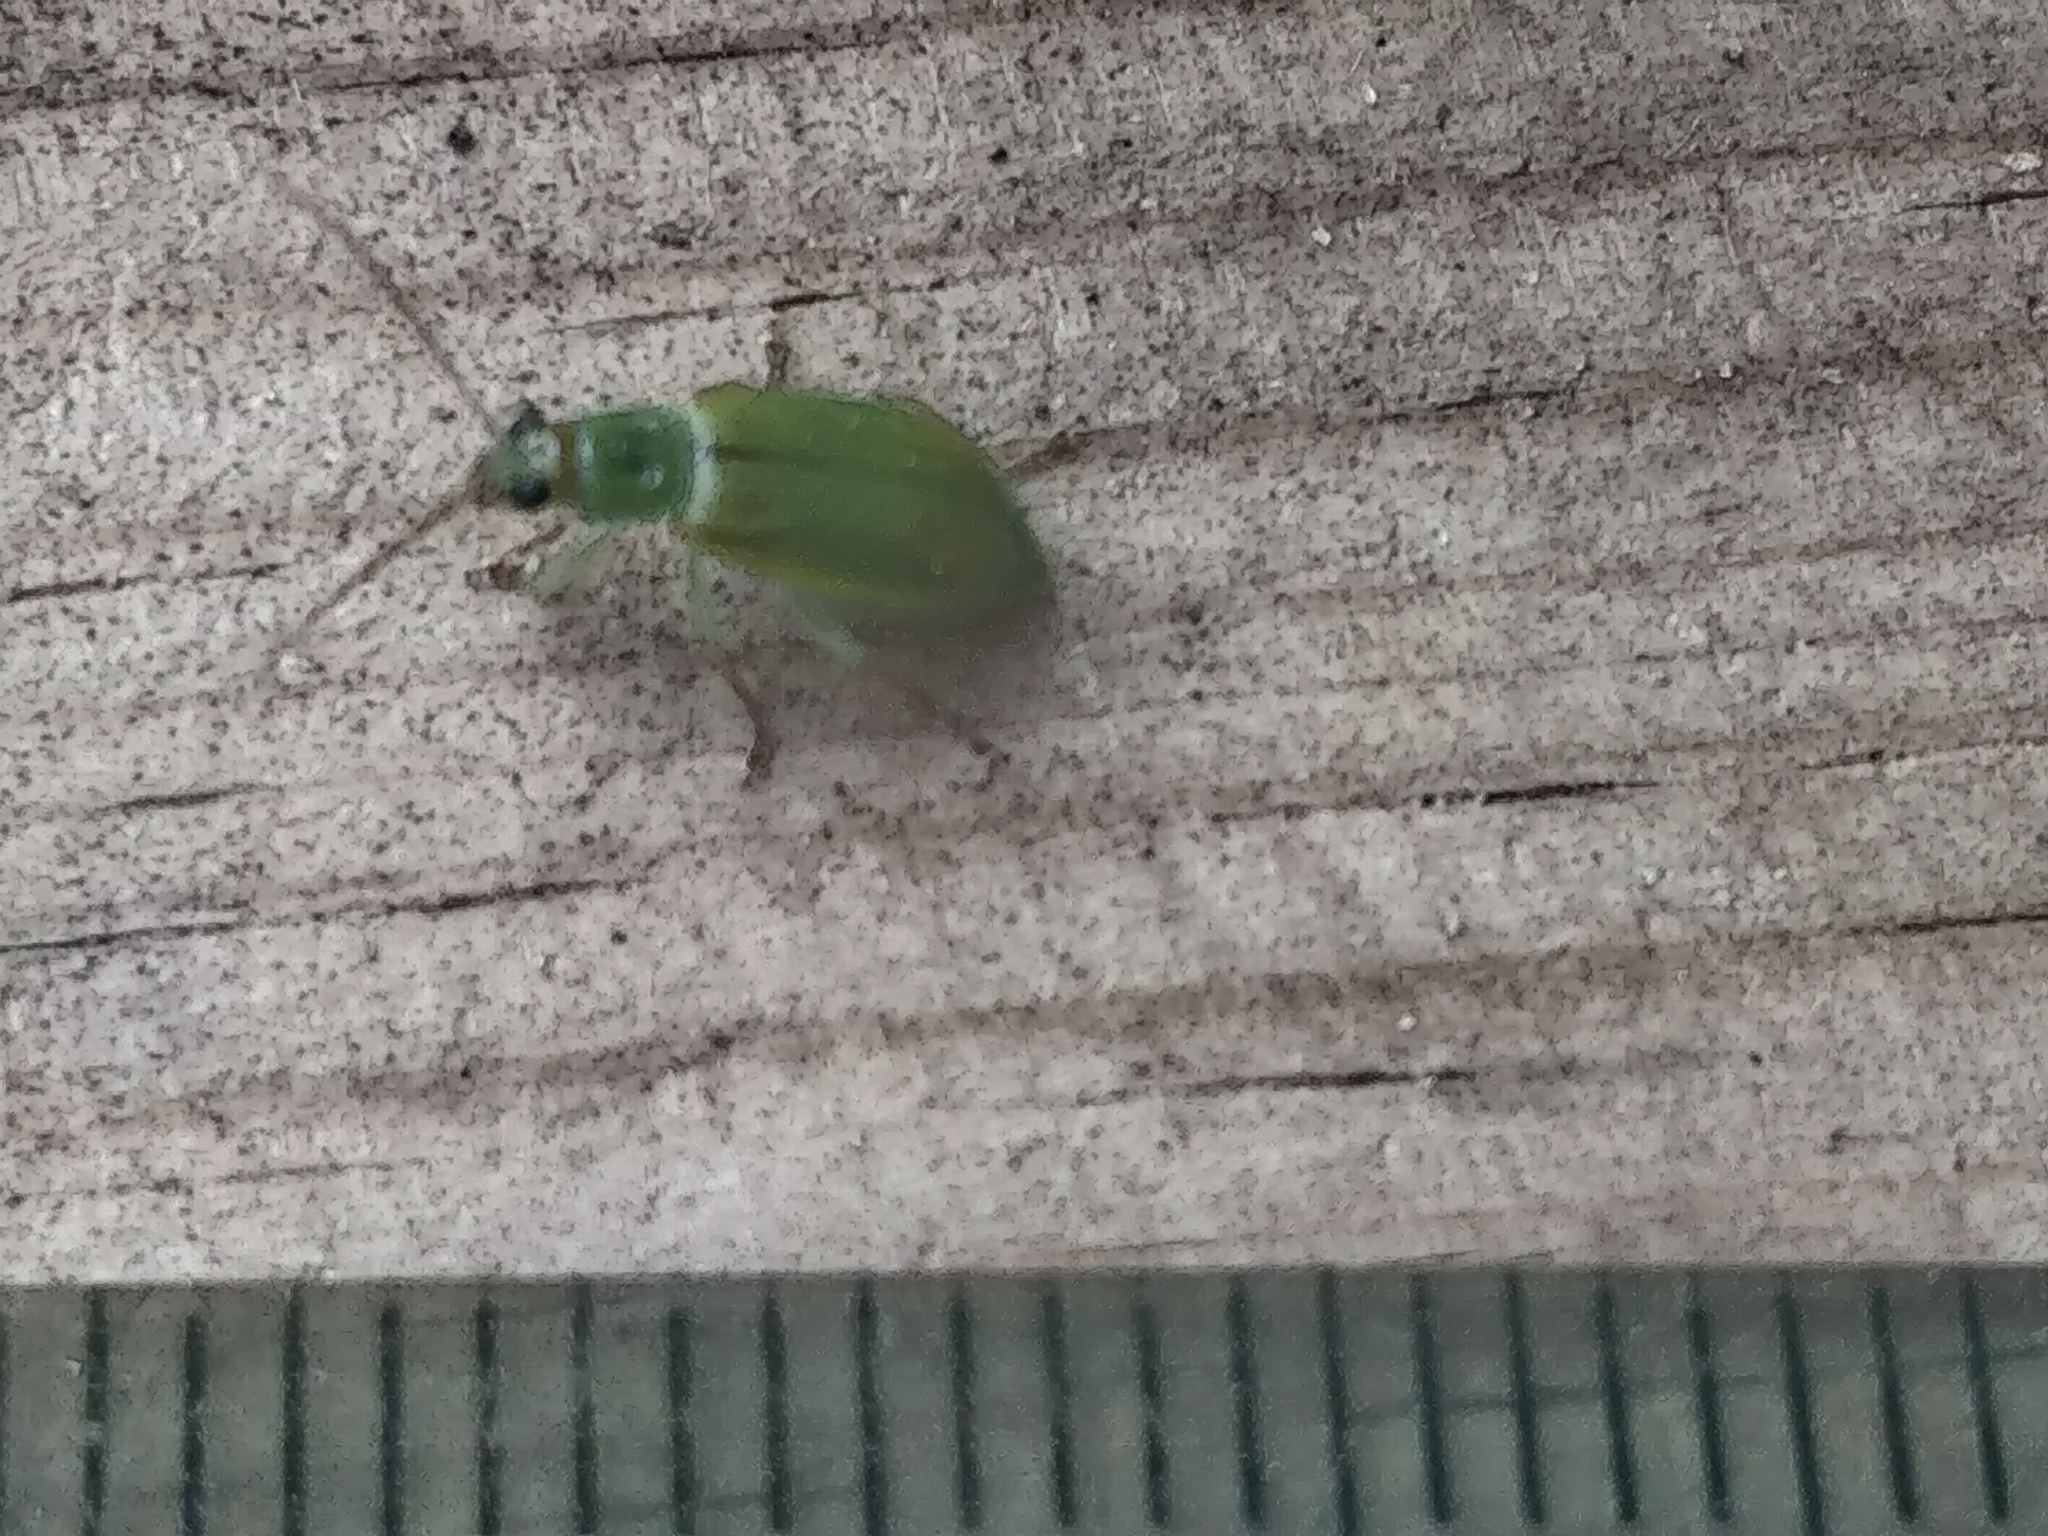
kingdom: Animalia
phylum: Arthropoda
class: Insecta
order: Coleoptera
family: Chrysomelidae
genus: Diabrotica
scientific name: Diabrotica barberi
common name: Northern corn rootworm
